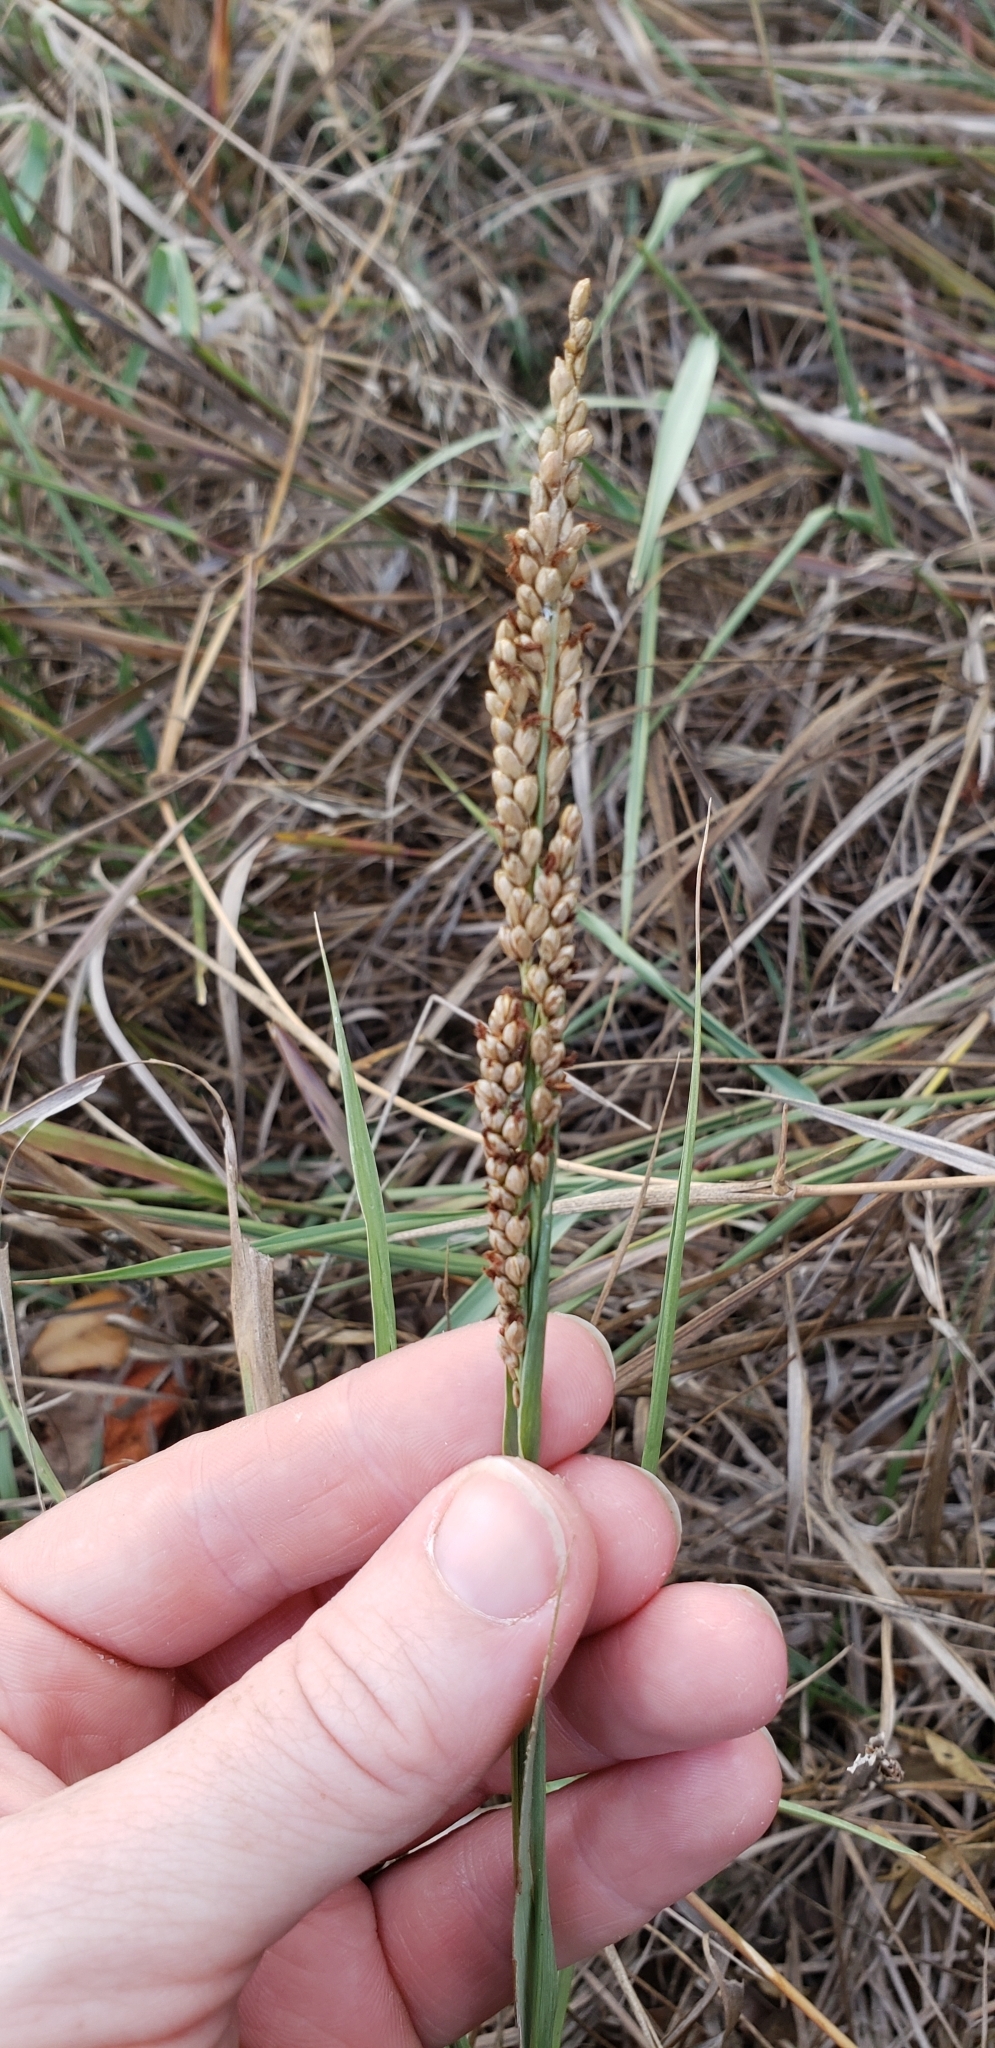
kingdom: Plantae
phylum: Tracheophyta
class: Liliopsida
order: Poales
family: Poaceae
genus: Hopia
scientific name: Hopia obtusa
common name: Vine-mesquite
